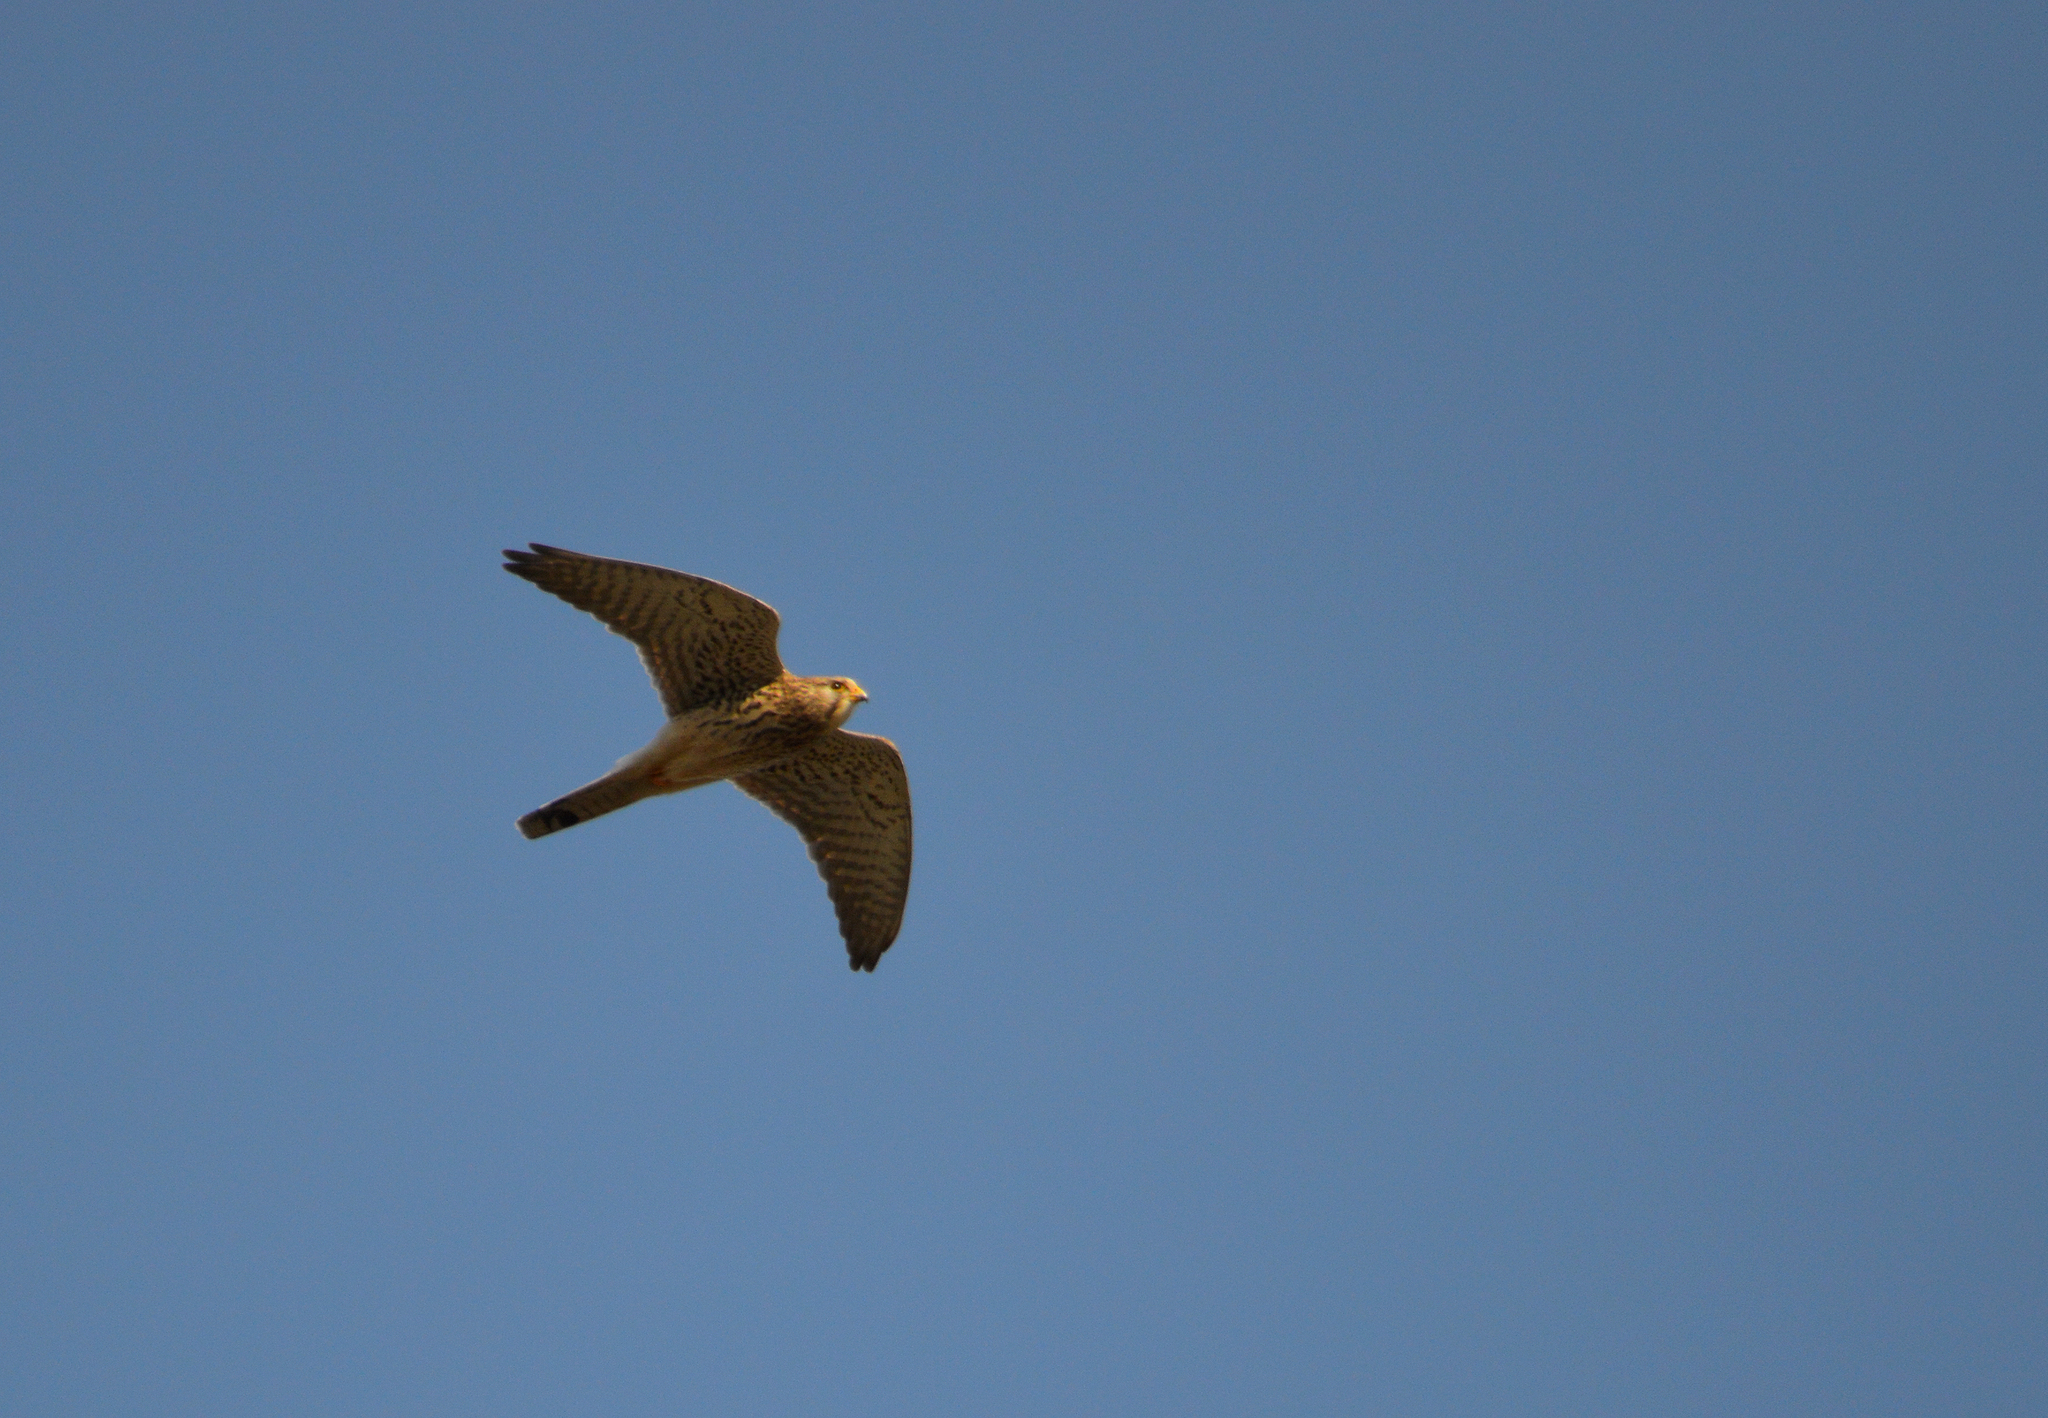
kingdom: Animalia
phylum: Chordata
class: Aves
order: Falconiformes
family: Falconidae
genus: Falco
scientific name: Falco tinnunculus
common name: Common kestrel
